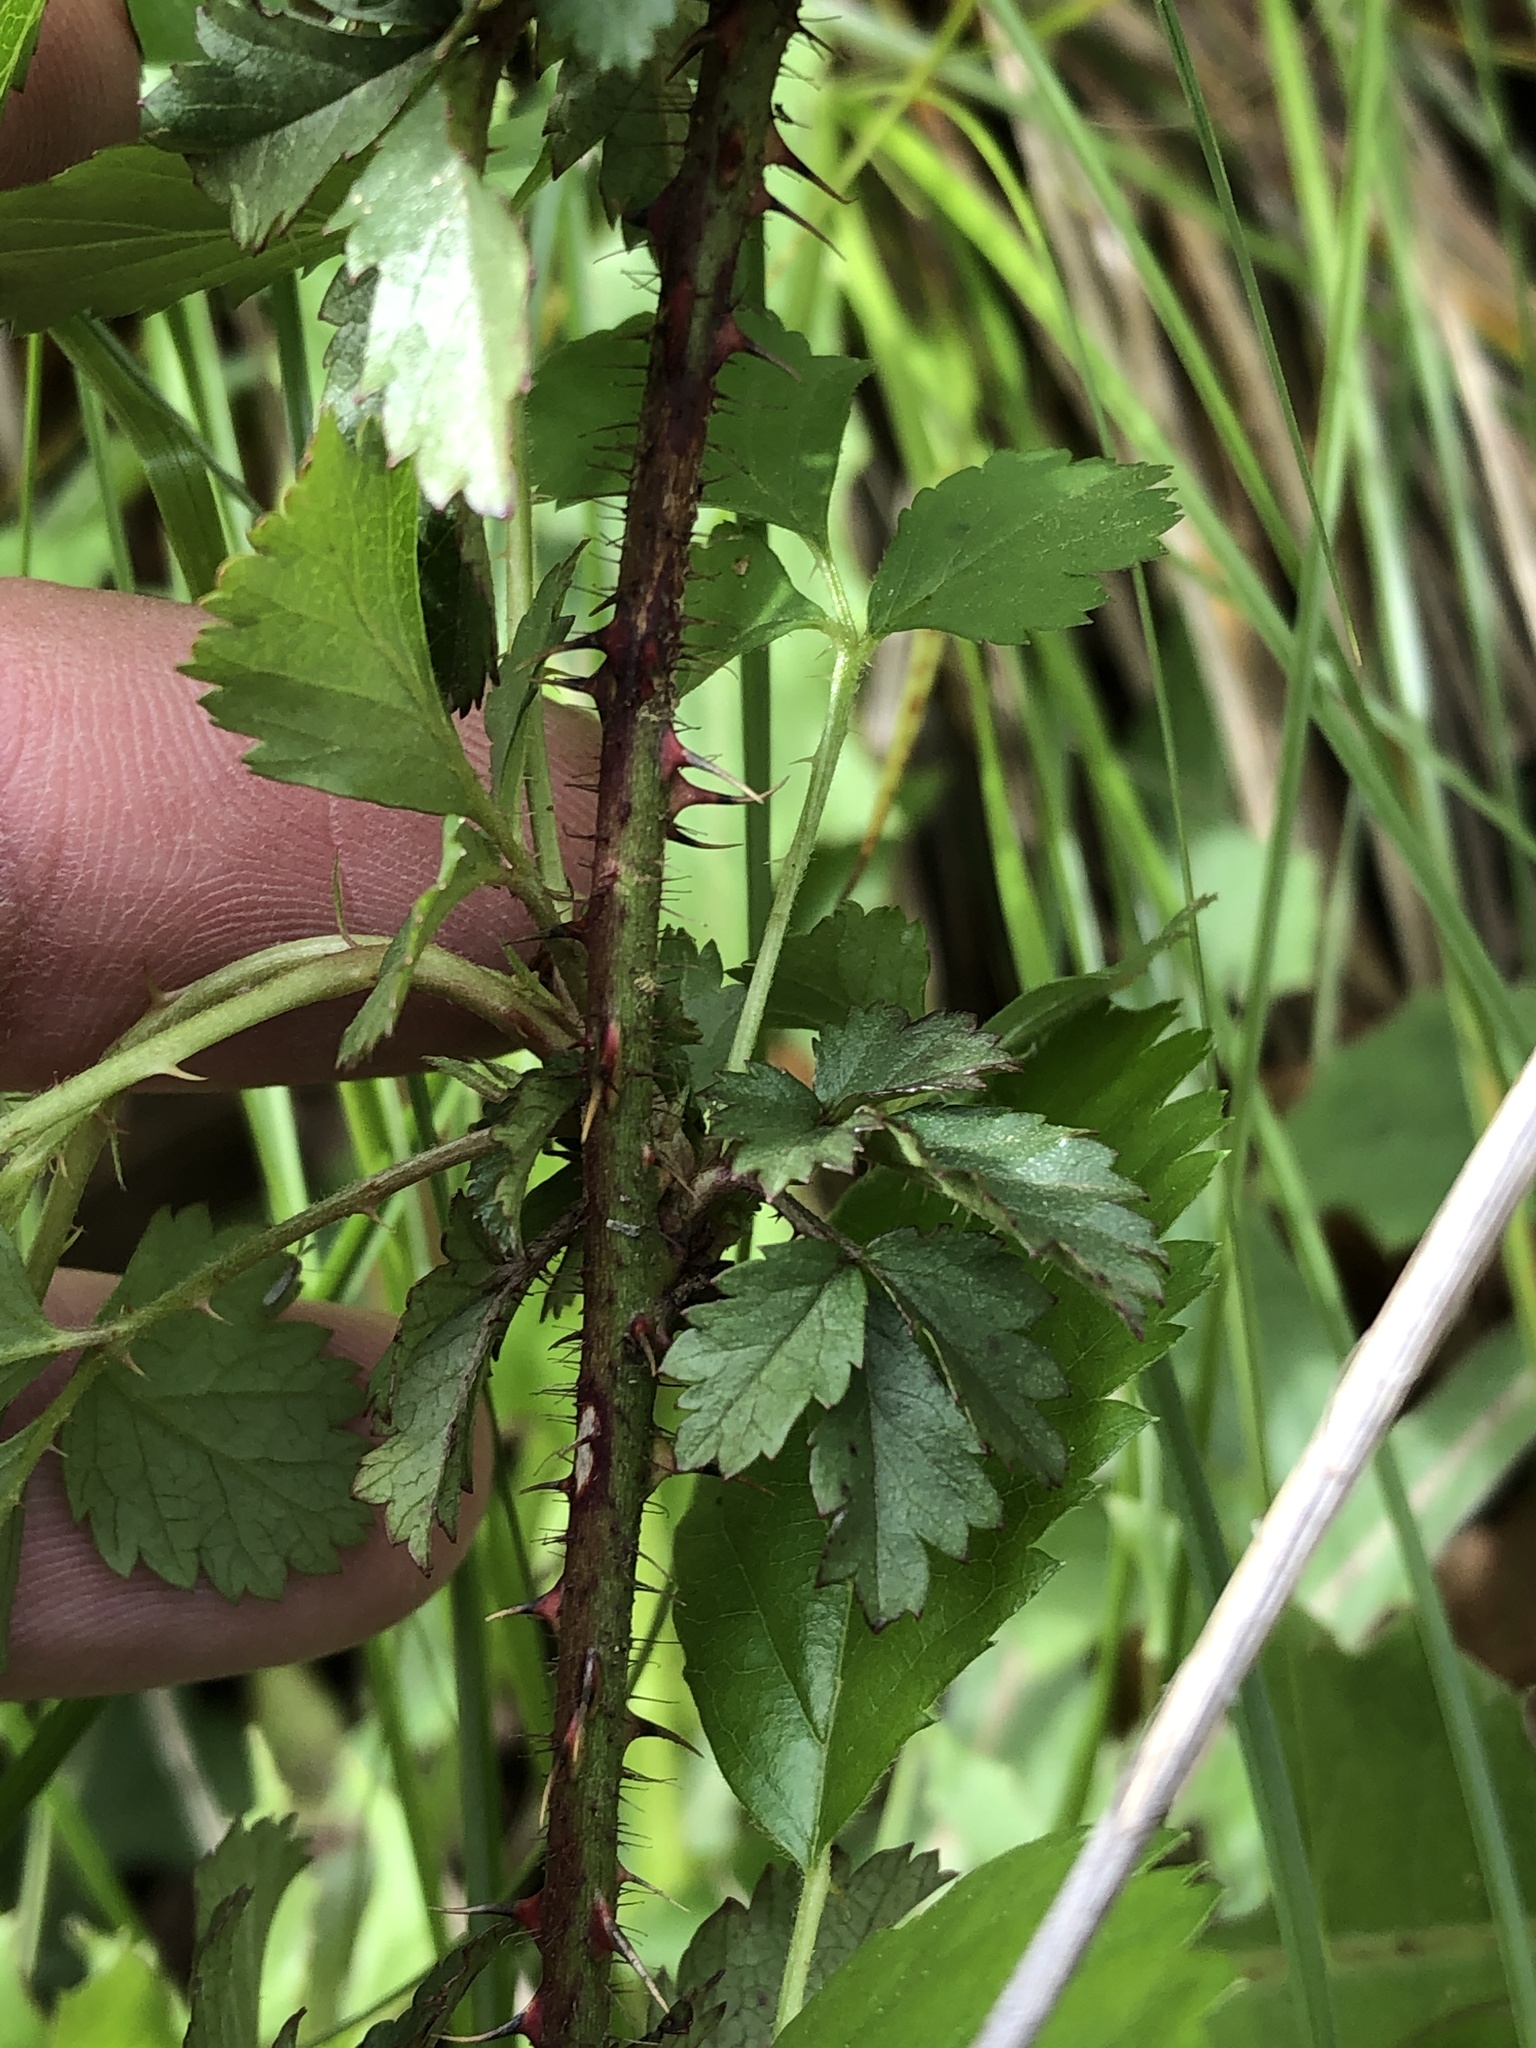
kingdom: Plantae
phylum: Tracheophyta
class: Magnoliopsida
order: Rosales
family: Rosaceae
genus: Rubus
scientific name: Rubus trivialis
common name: Southern dewberry
